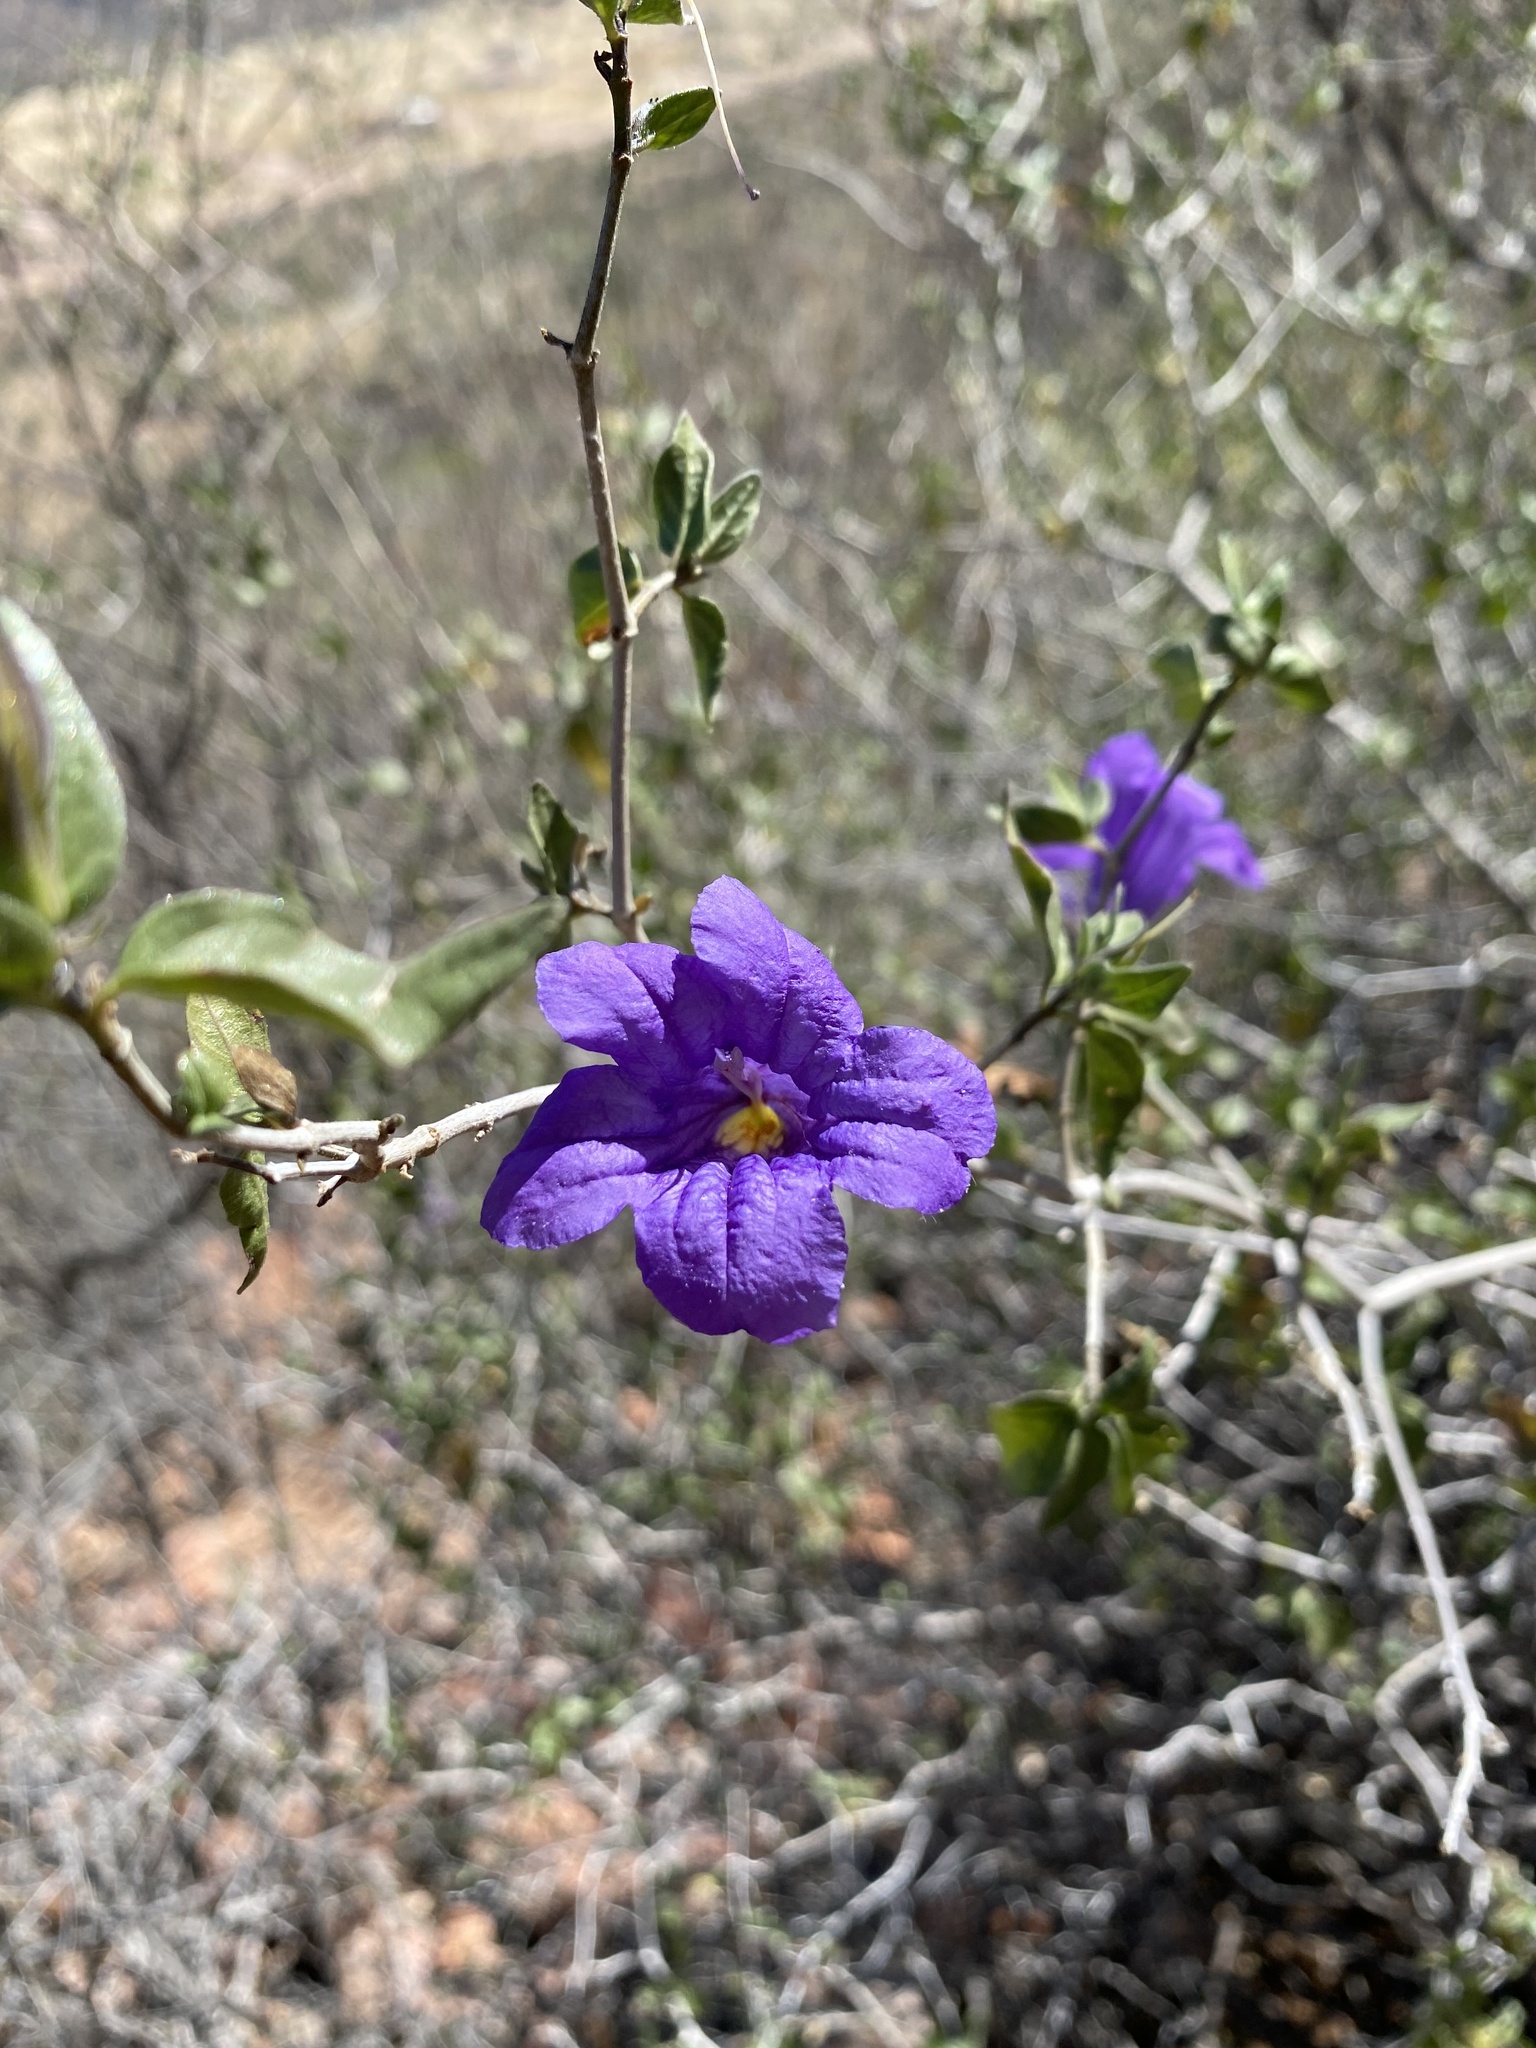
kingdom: Plantae
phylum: Tracheophyta
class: Magnoliopsida
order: Lamiales
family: Acanthaceae
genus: Ruellia
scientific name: Ruellia californica
